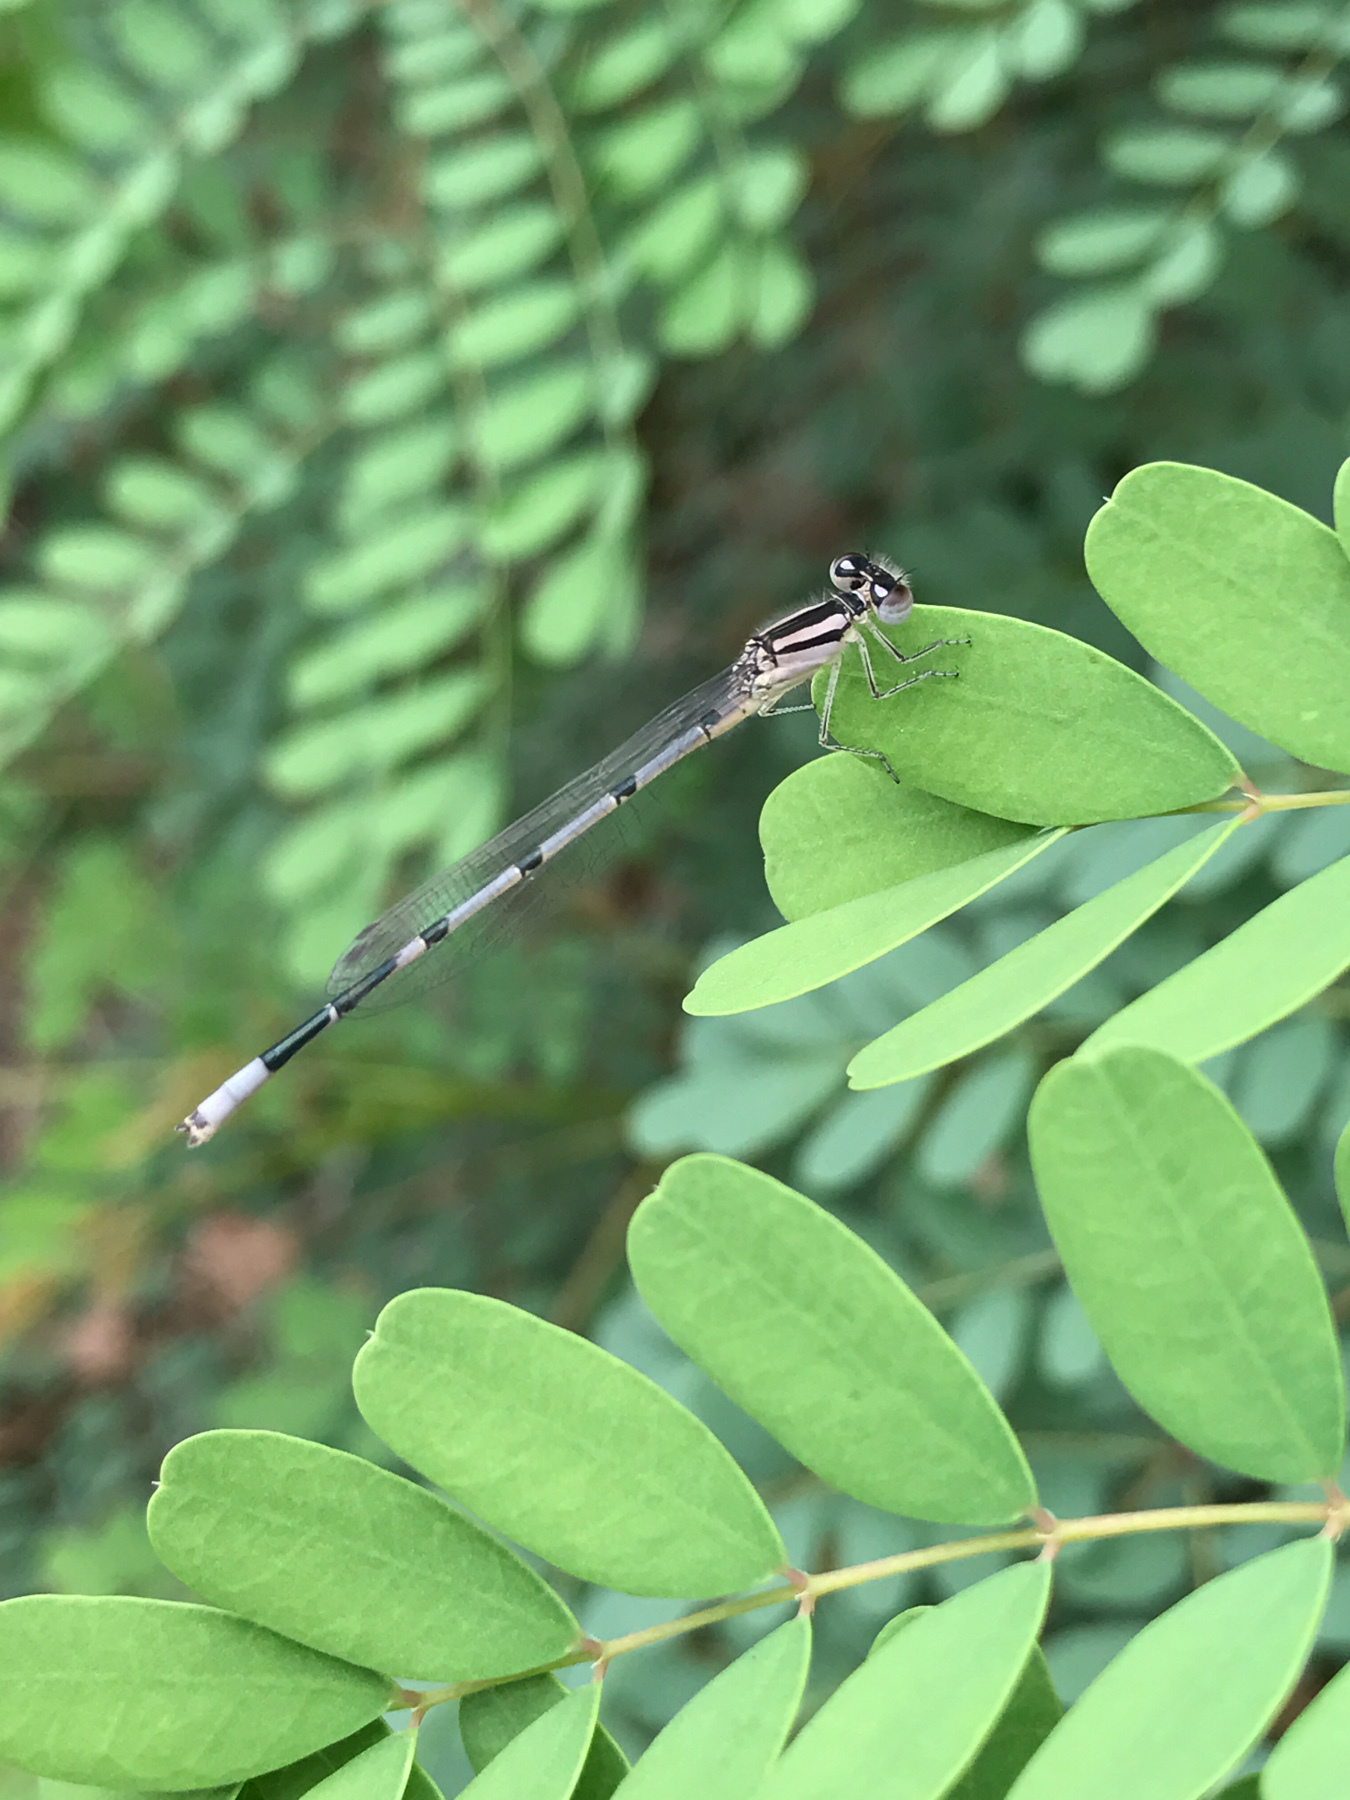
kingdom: Animalia
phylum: Arthropoda
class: Insecta
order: Odonata
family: Coenagrionidae
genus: Enallagma
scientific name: Enallagma civile
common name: Damselfly
